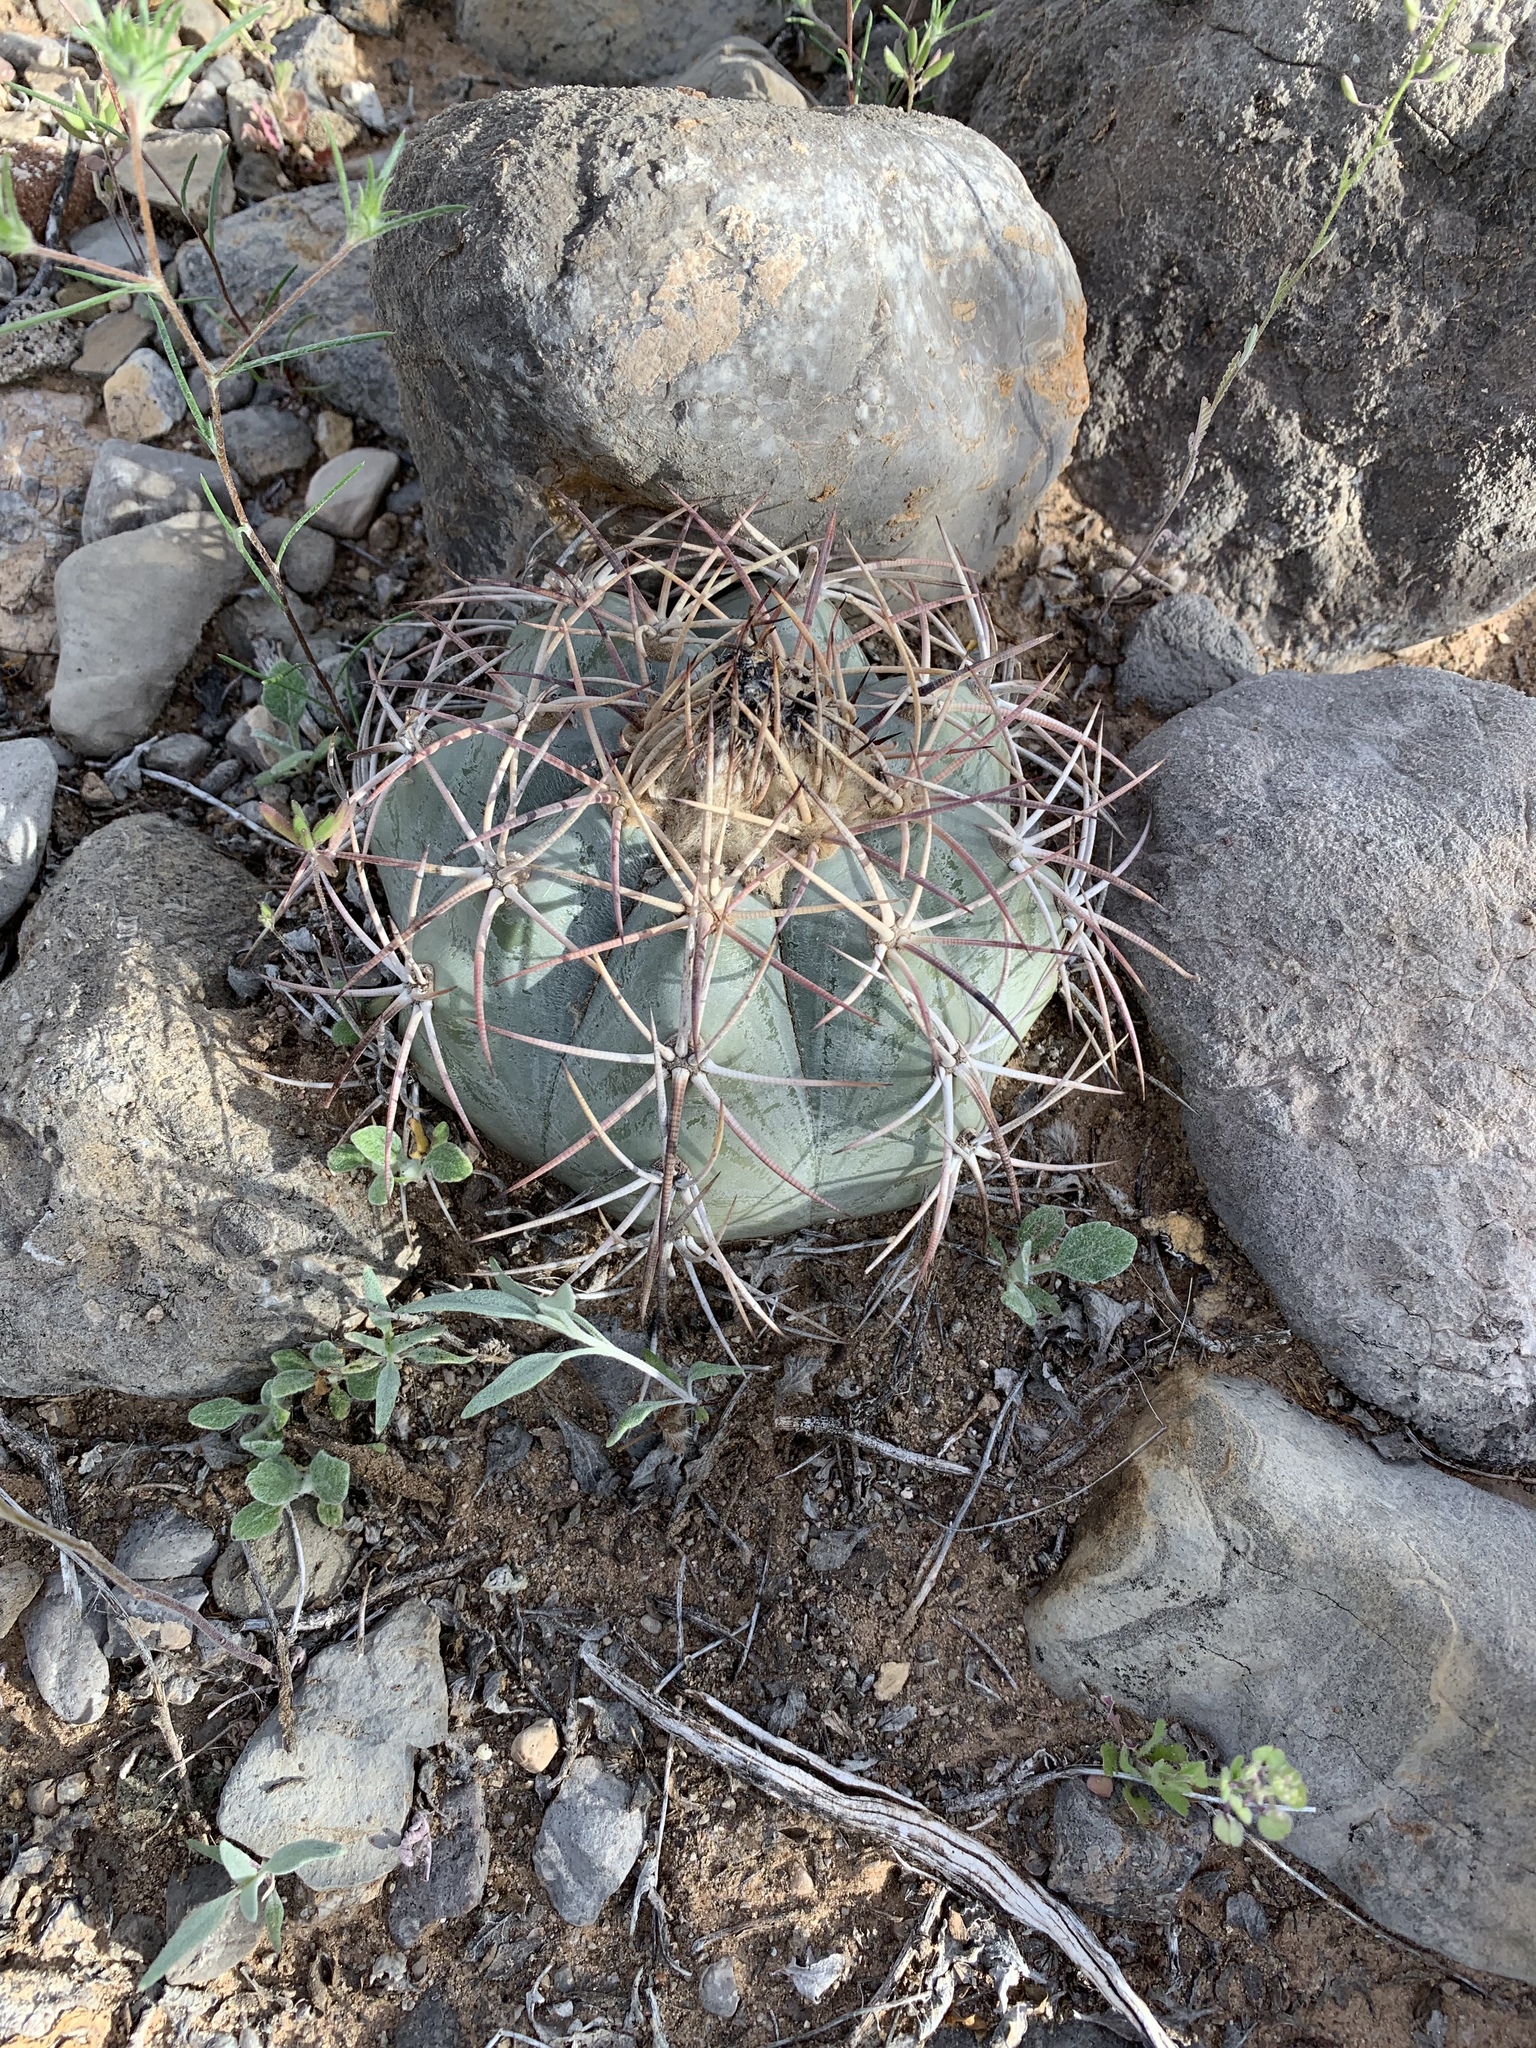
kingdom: Plantae
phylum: Tracheophyta
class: Magnoliopsida
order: Caryophyllales
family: Cactaceae
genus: Echinocactus
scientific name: Echinocactus horizonthalonius
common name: Devilshead
